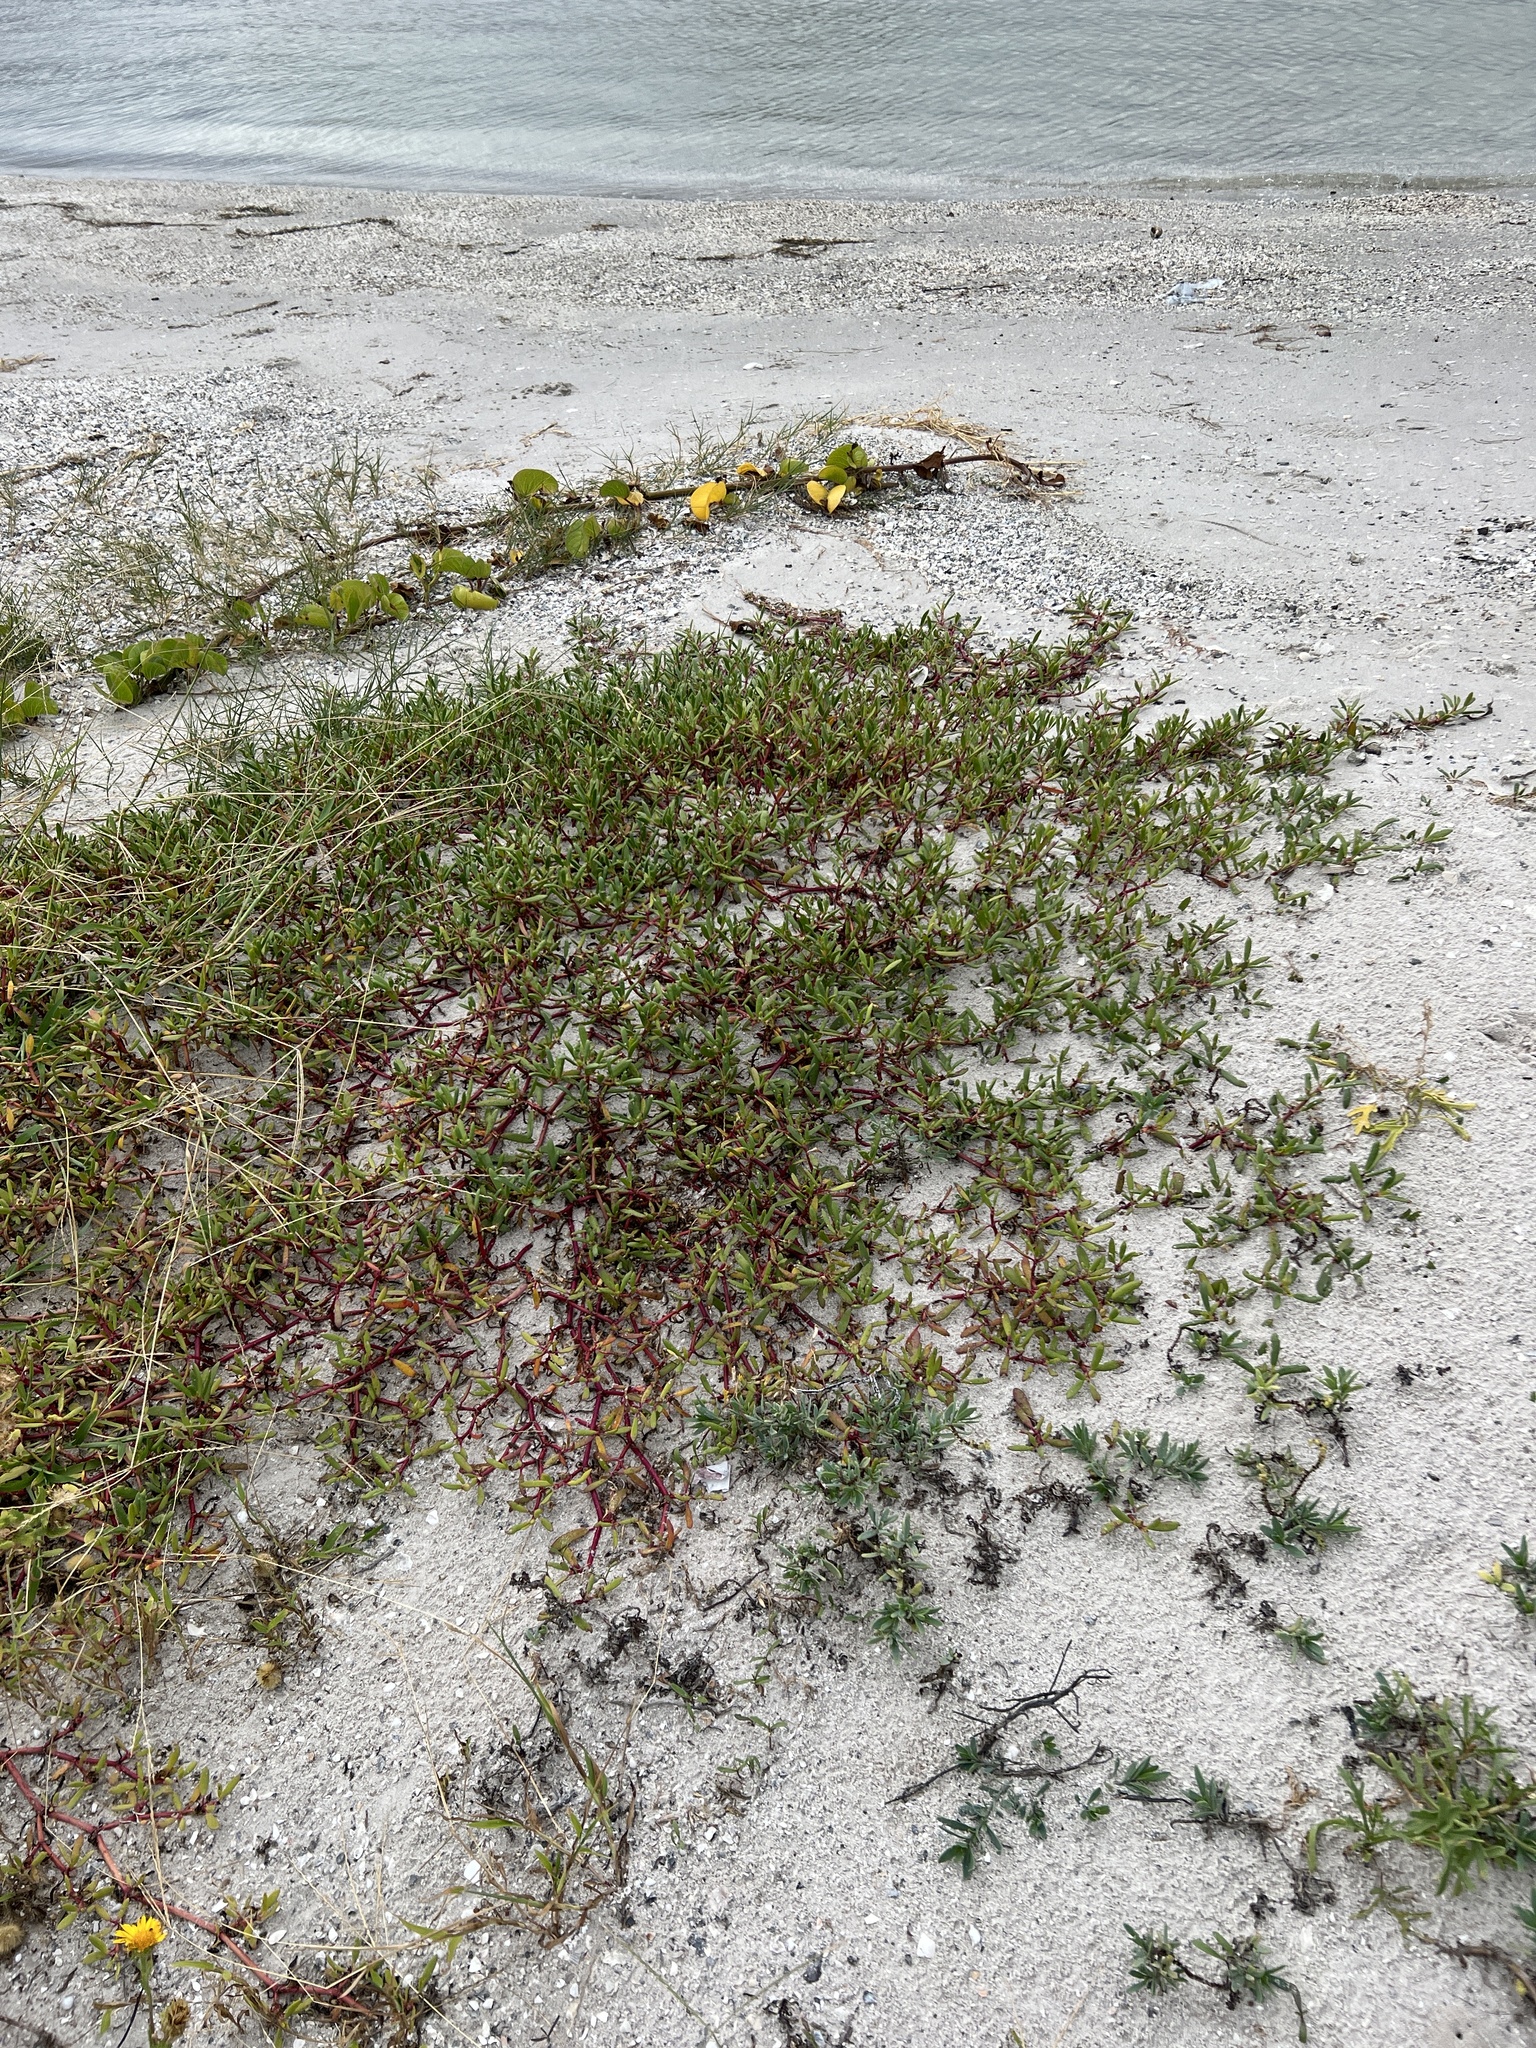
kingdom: Plantae
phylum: Tracheophyta
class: Magnoliopsida
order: Caryophyllales
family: Aizoaceae
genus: Sesuvium
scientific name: Sesuvium portulacastrum
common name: Sea-purslane
